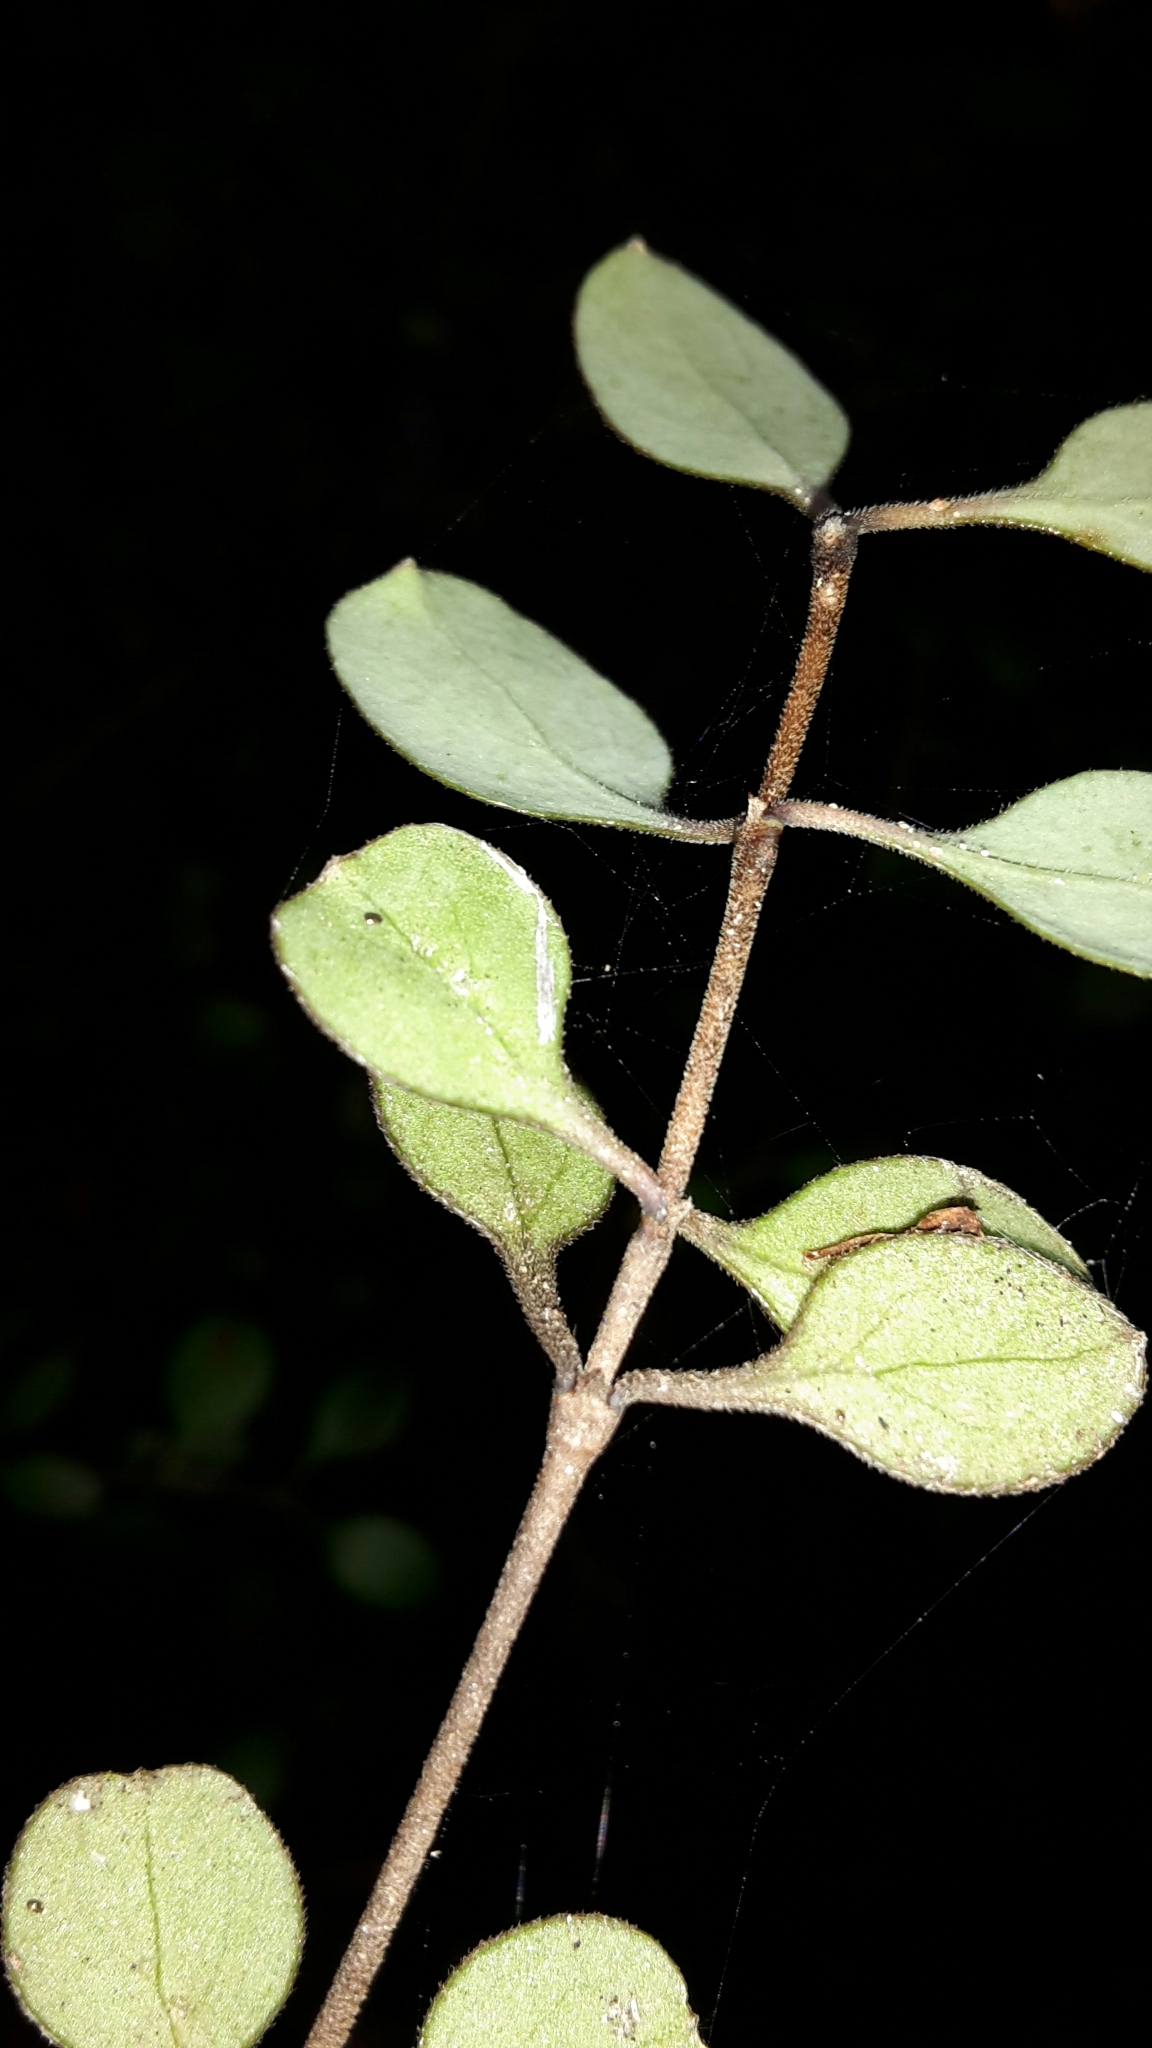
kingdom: Plantae
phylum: Tracheophyta
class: Magnoliopsida
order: Gentianales
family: Rubiaceae
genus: Coprosma
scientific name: Coprosma crassifolia
